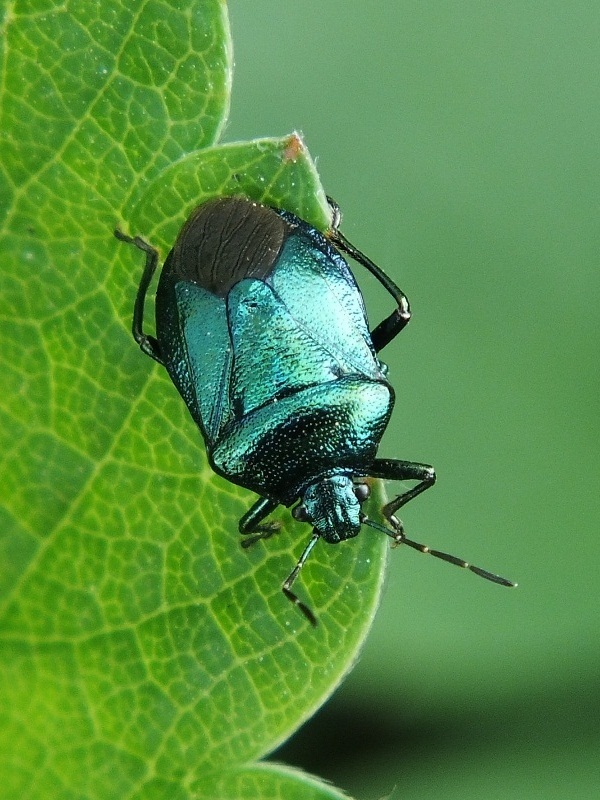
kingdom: Animalia
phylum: Arthropoda
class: Insecta
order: Hemiptera
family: Pentatomidae
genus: Zicrona
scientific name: Zicrona caerulea
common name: Blue shieldbug
